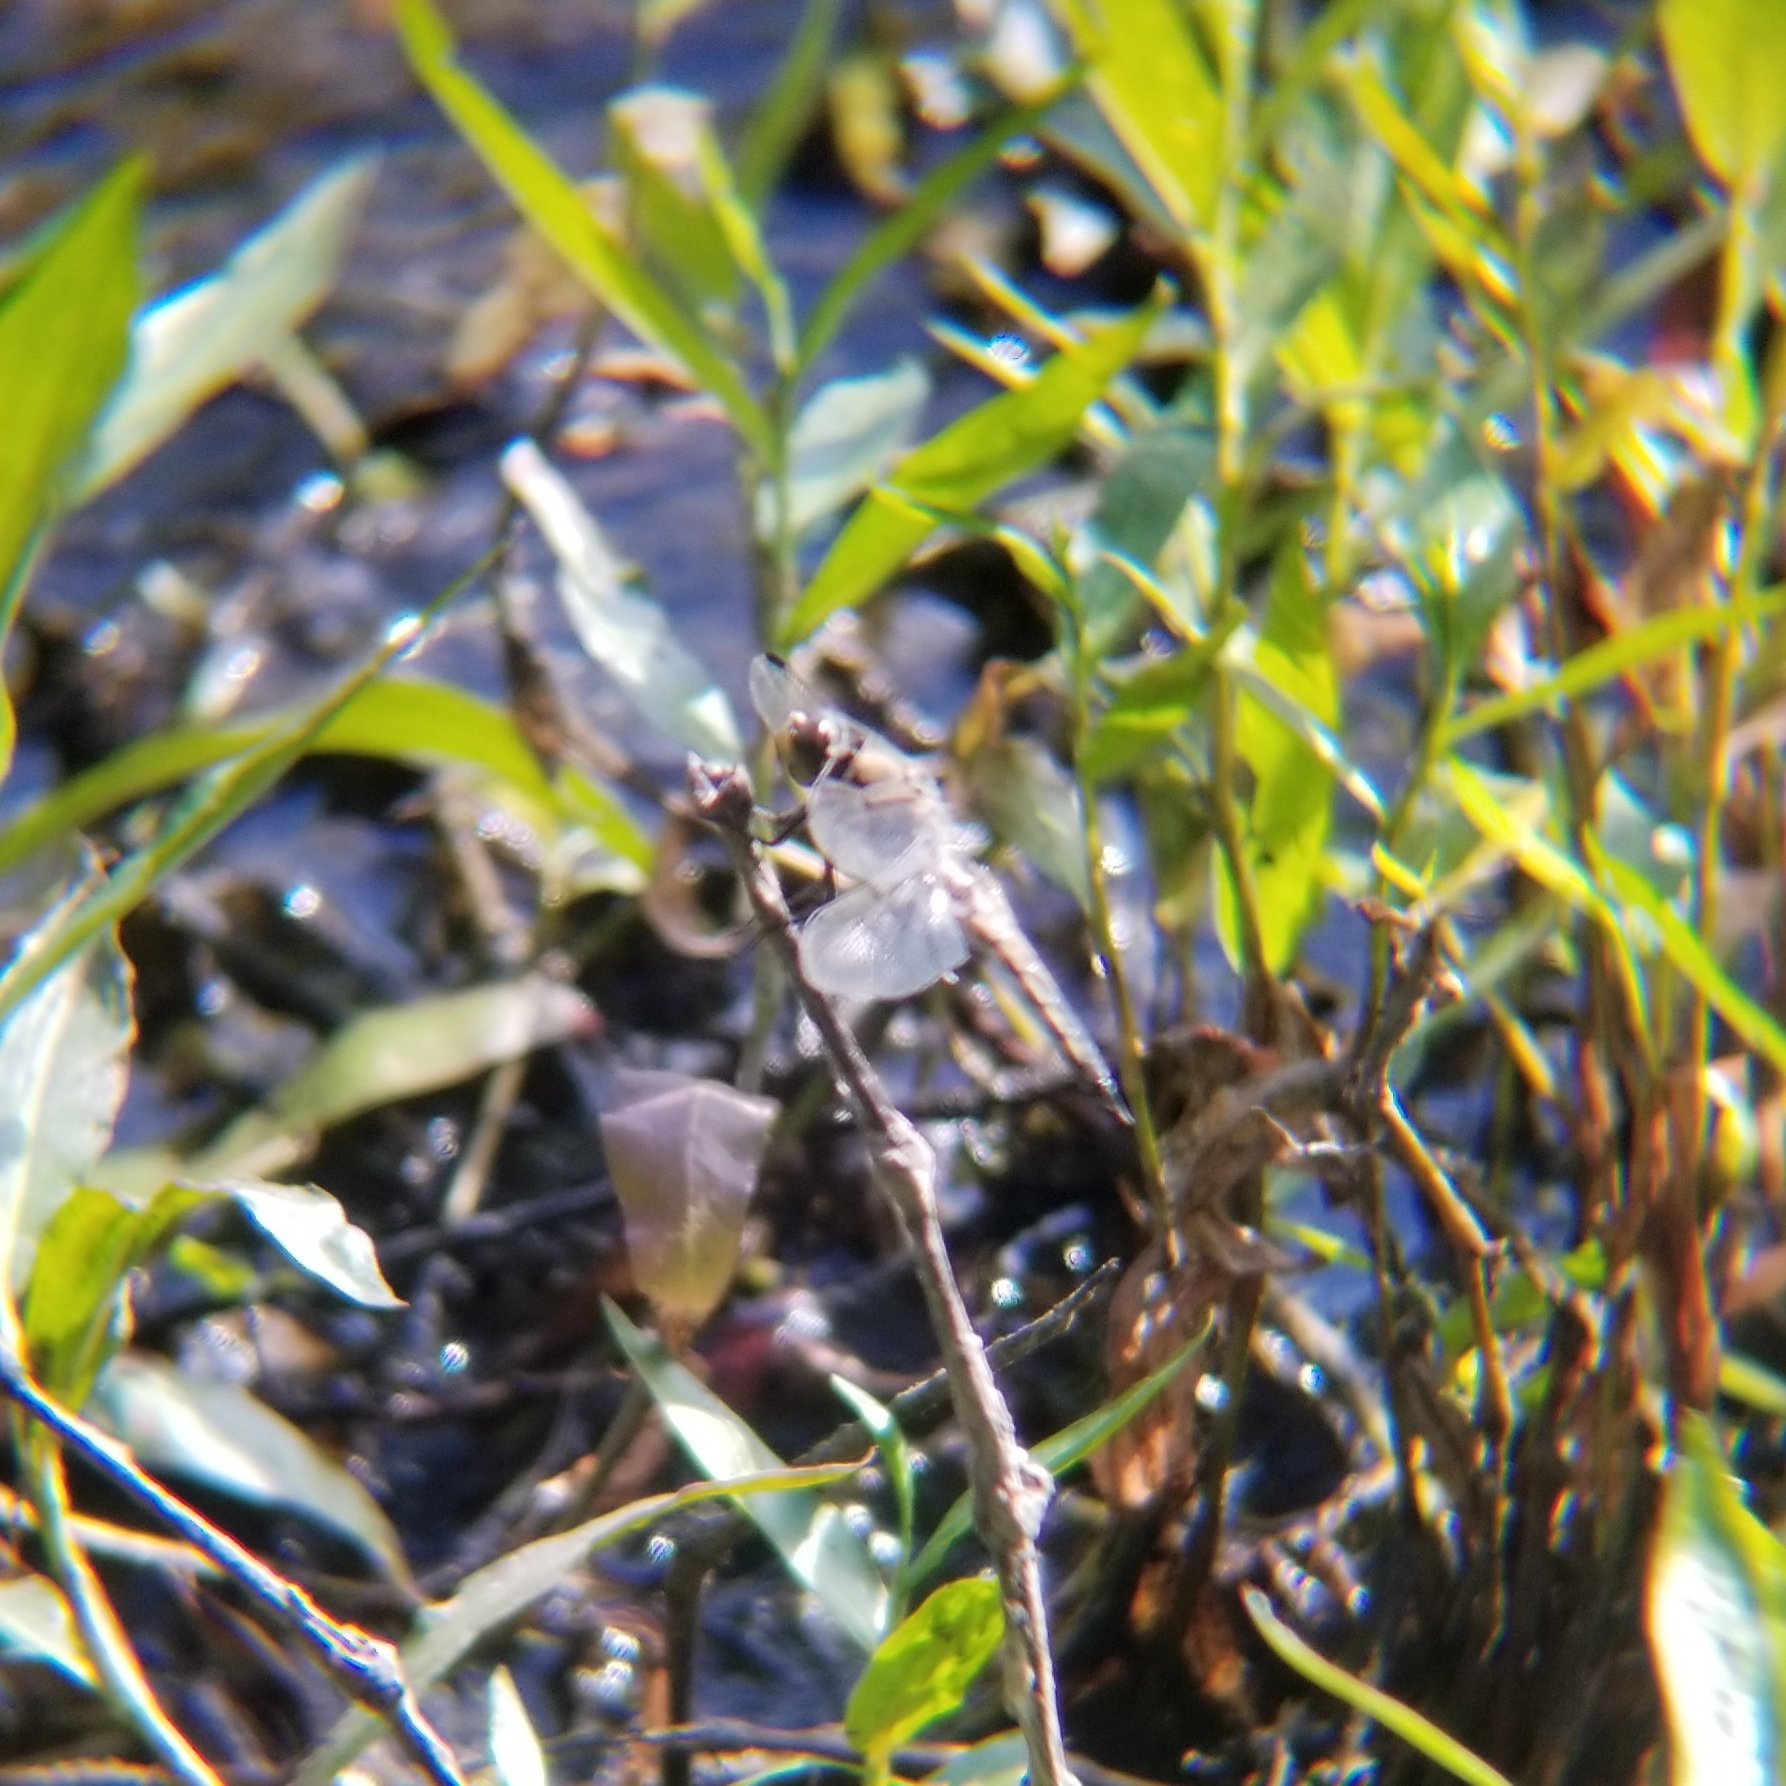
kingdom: Animalia
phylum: Arthropoda
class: Insecta
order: Odonata
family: Libellulidae
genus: Libellula
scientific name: Libellula quadrimaculata
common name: Four-spotted chaser
